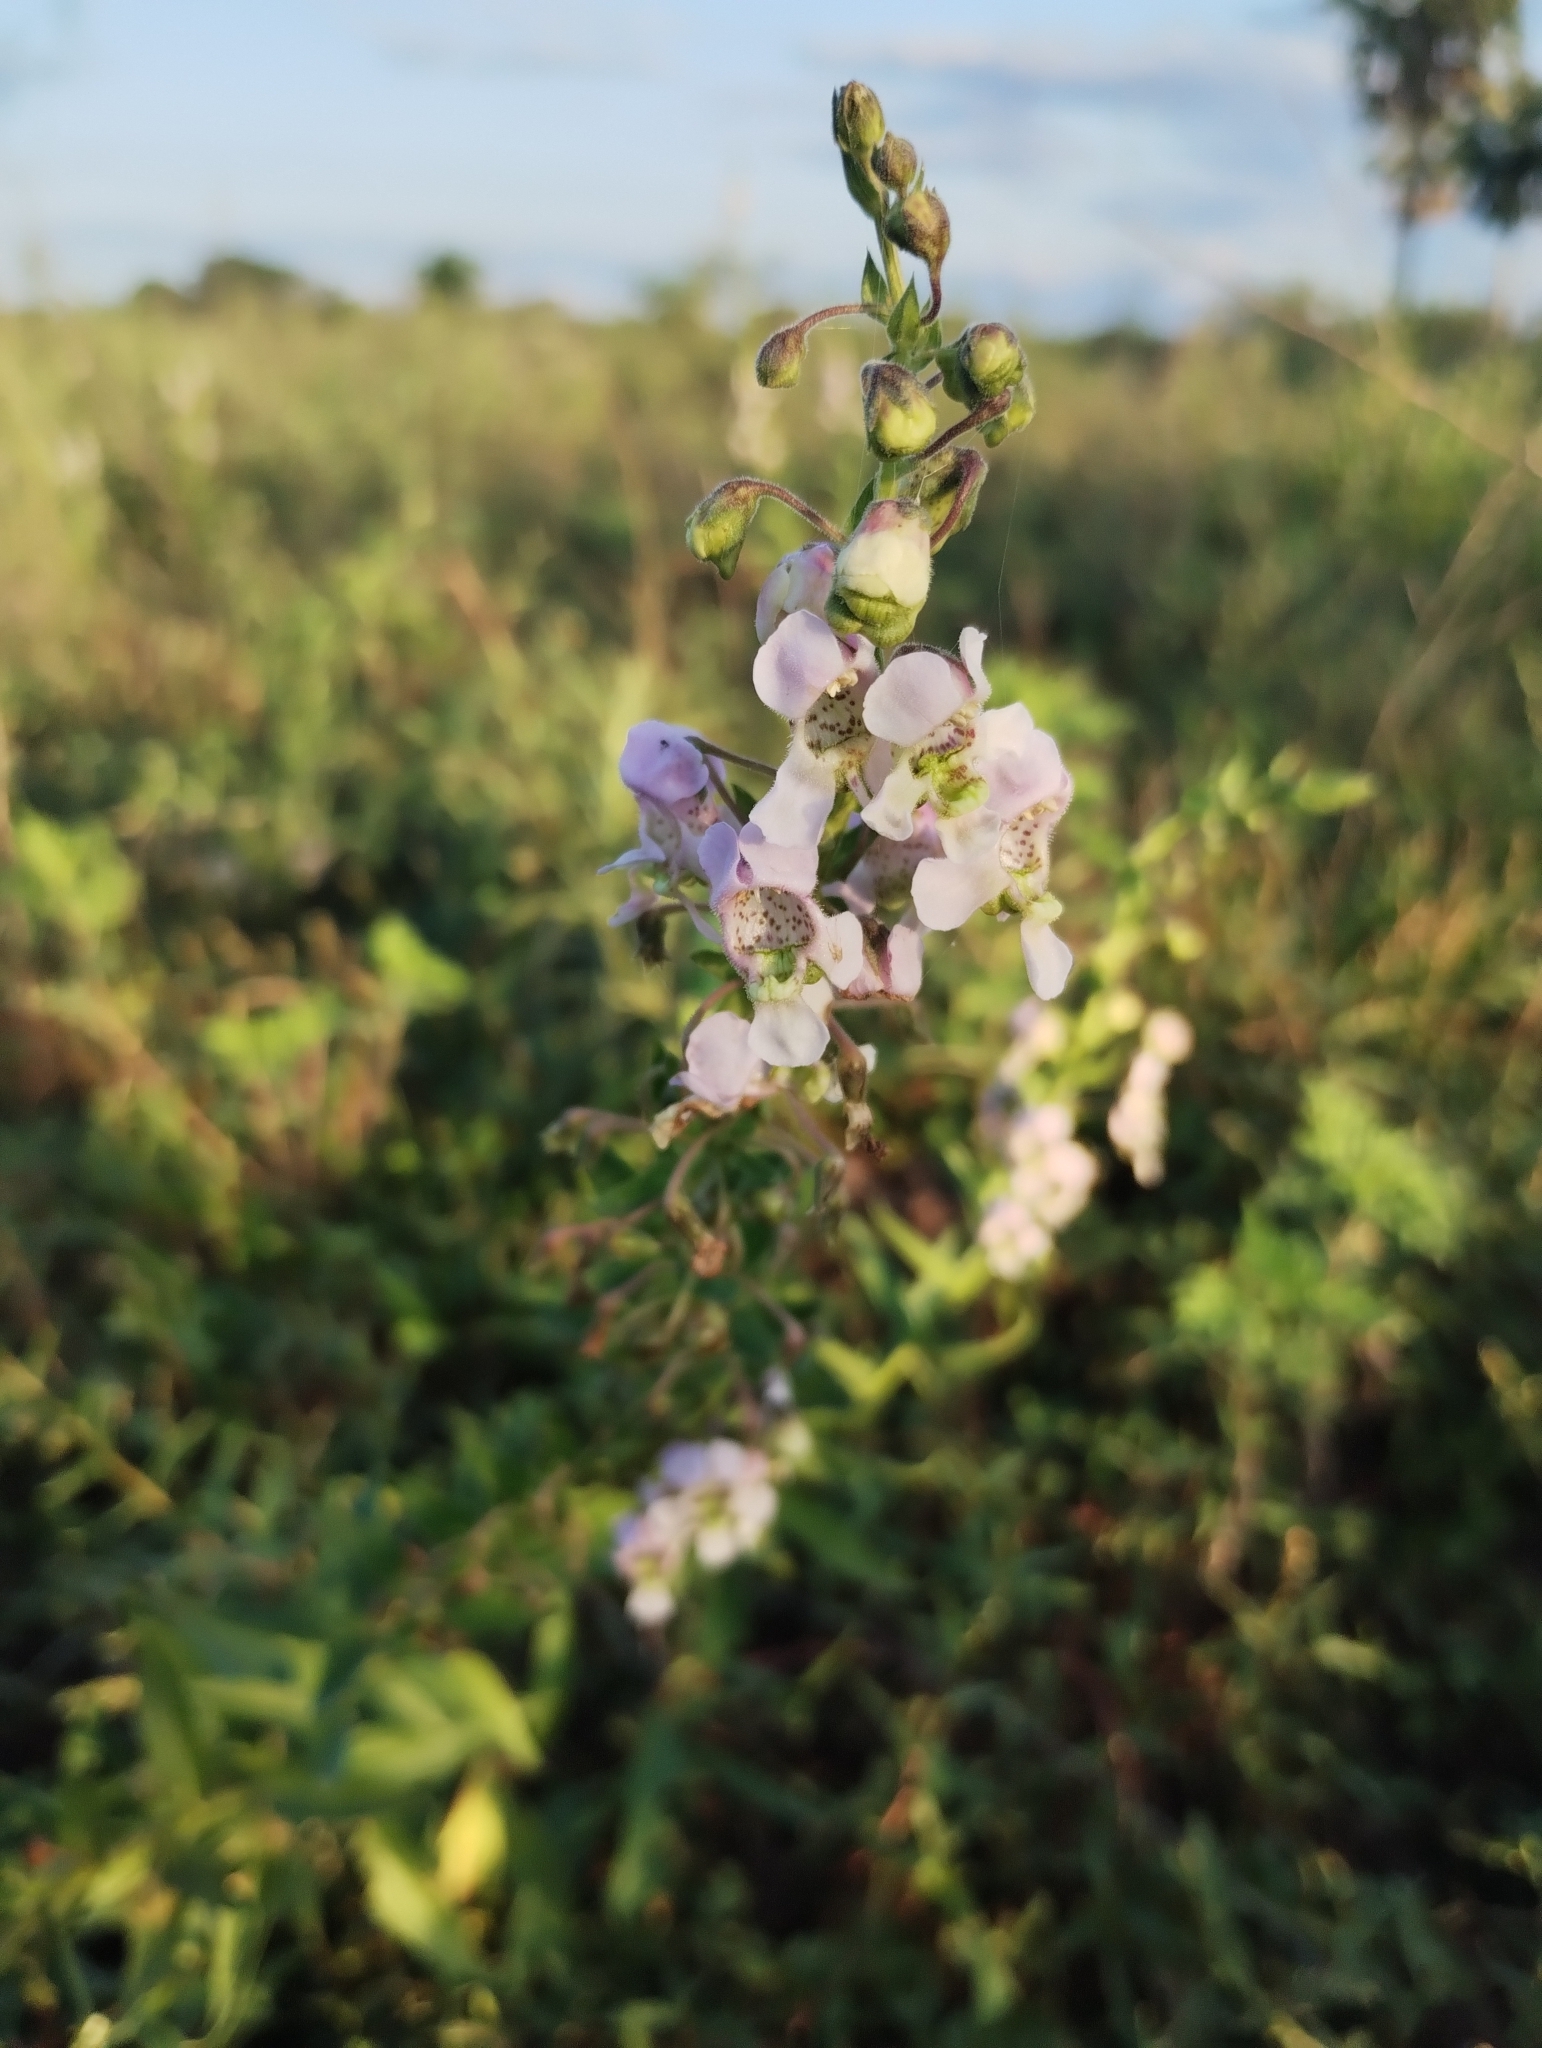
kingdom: Plantae
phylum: Tracheophyta
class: Magnoliopsida
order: Lamiales
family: Plantaginaceae
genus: Angelonia
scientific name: Angelonia salicariifolia
